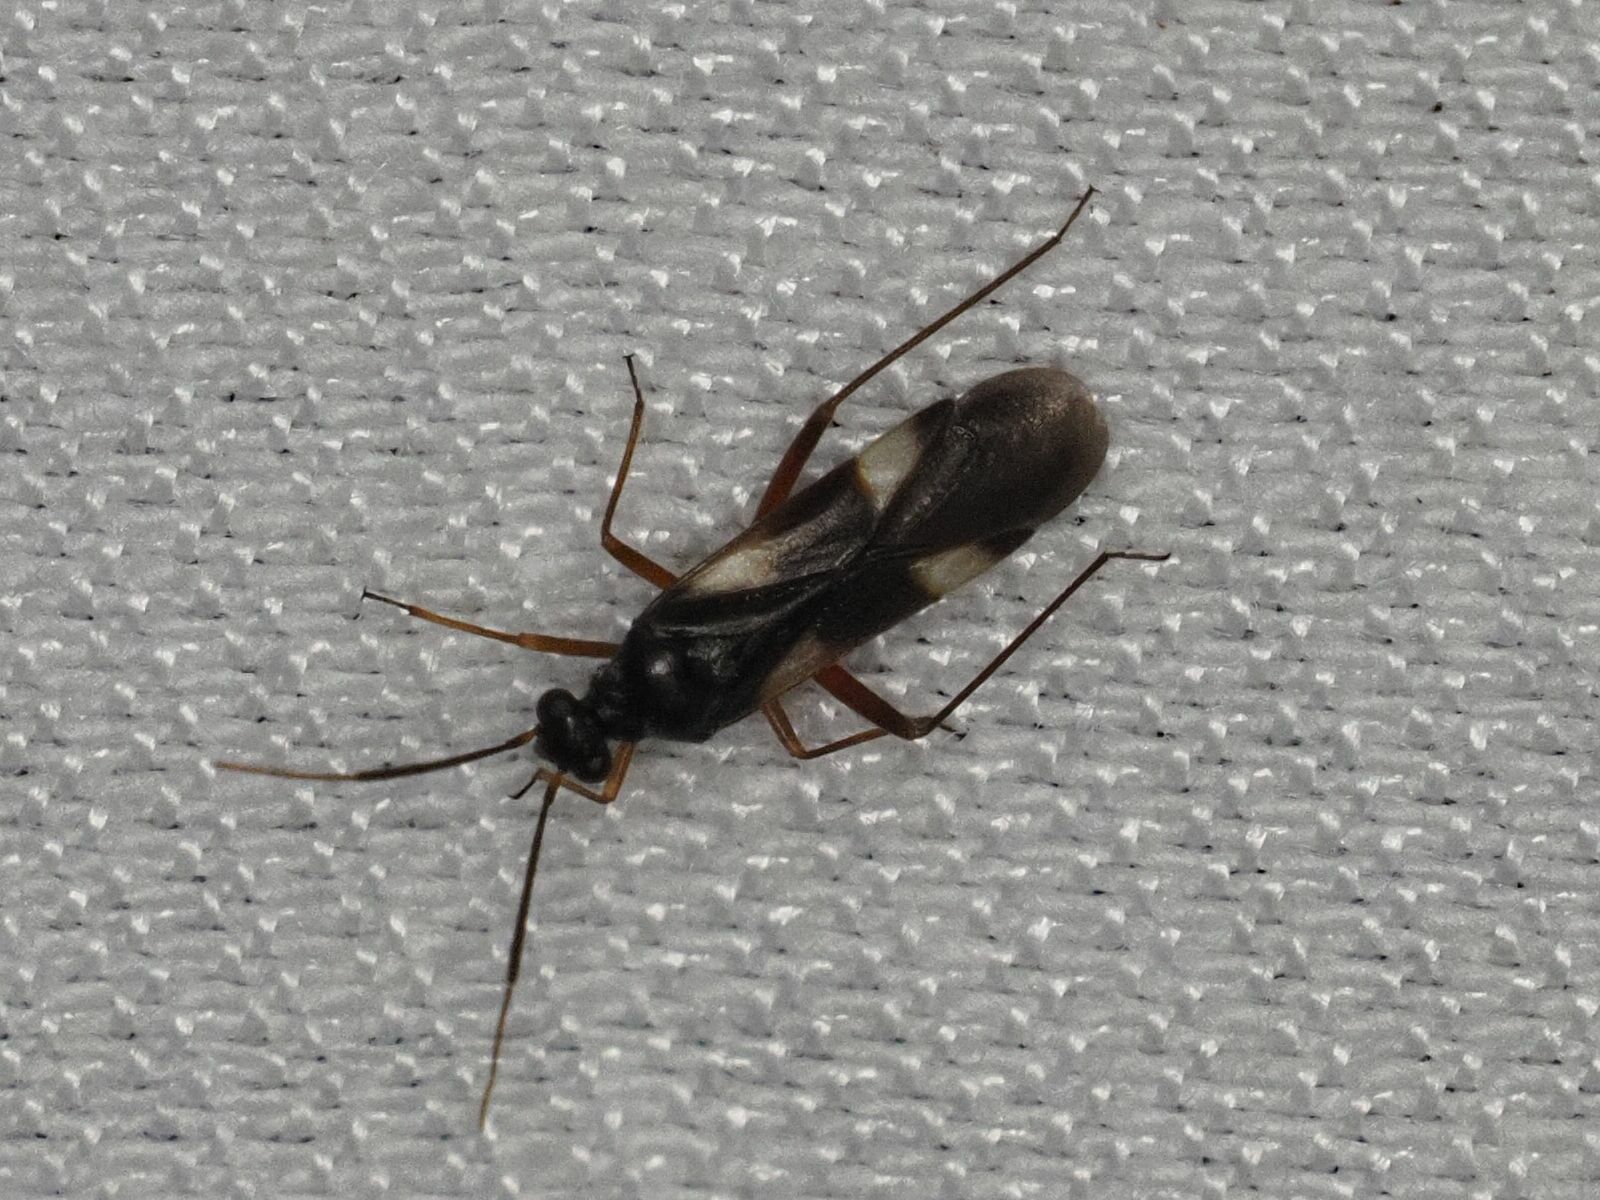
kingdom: Animalia
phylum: Arthropoda
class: Insecta
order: Hemiptera
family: Miridae
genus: Dryophilocoris
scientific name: Dryophilocoris flavoquadrimaculatus
